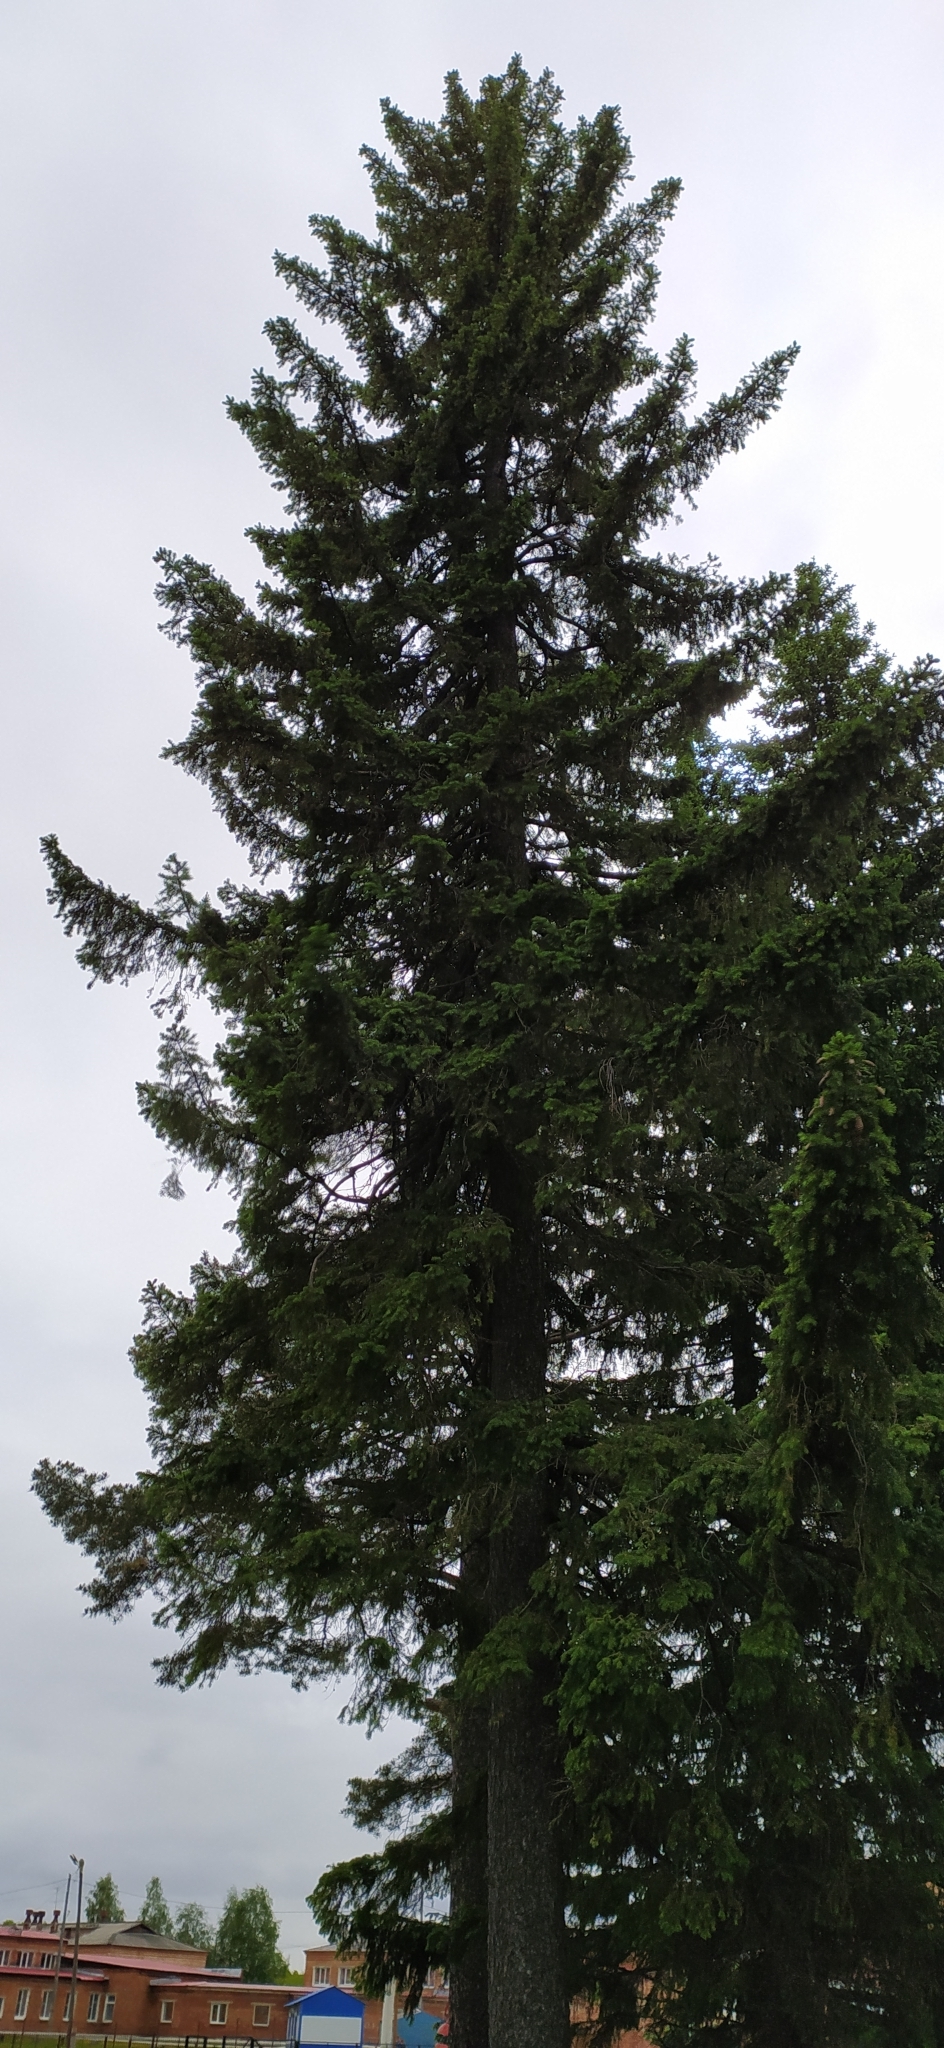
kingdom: Plantae
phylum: Tracheophyta
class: Pinopsida
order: Pinales
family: Pinaceae
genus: Picea
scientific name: Picea obovata
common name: Siberian spruce
